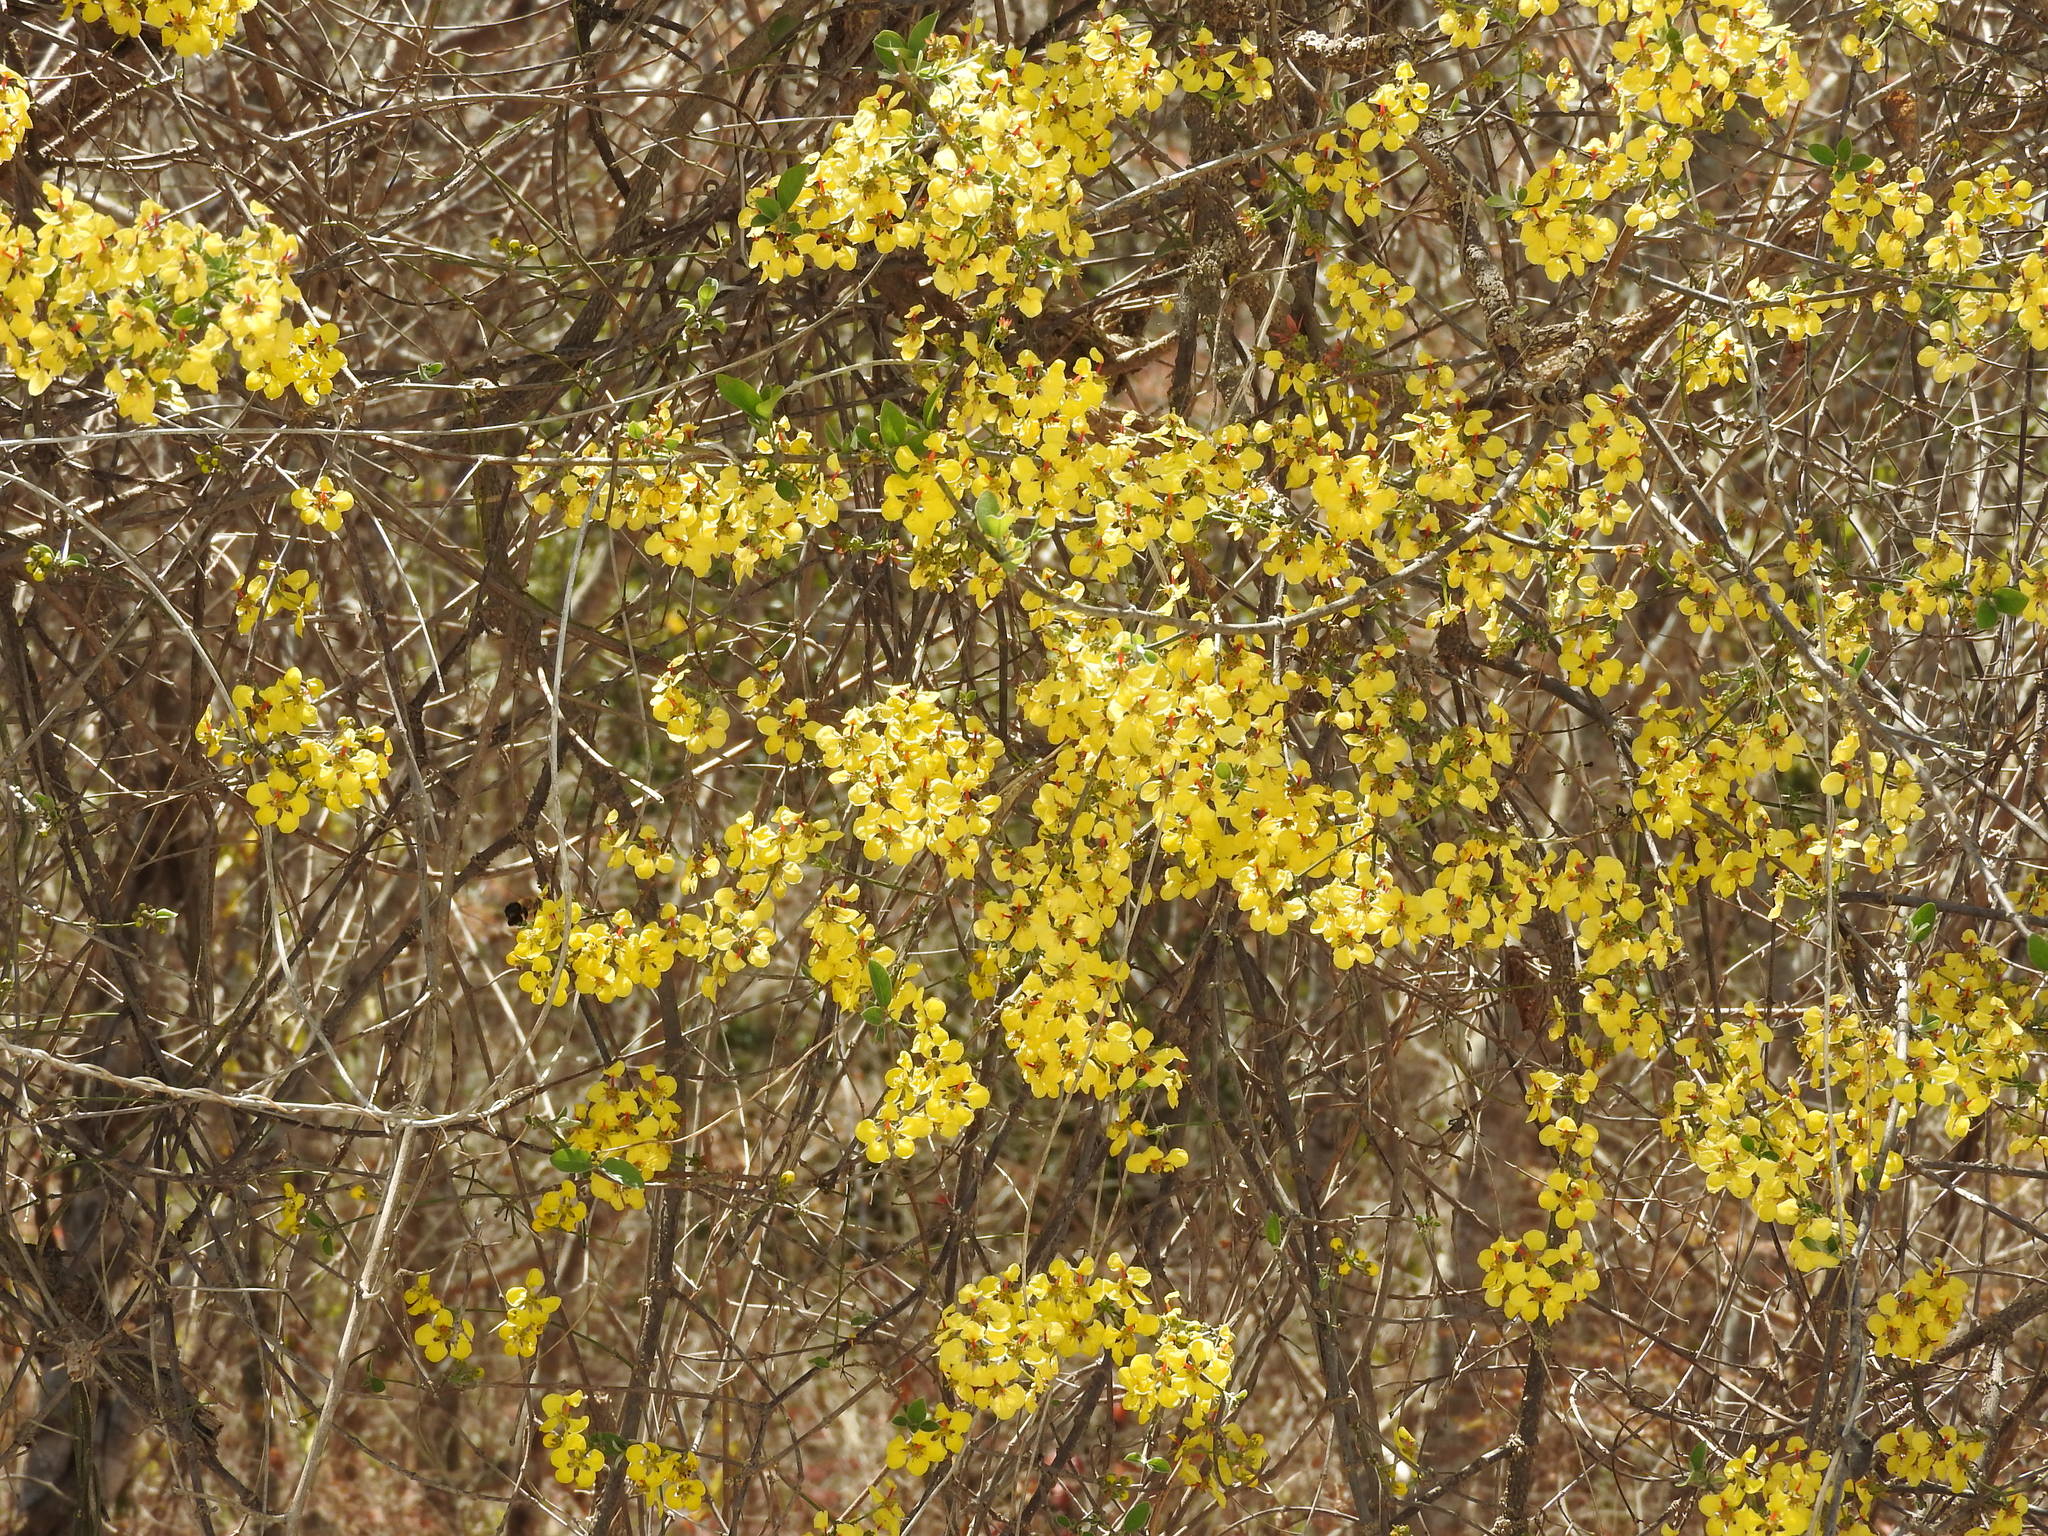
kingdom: Plantae
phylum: Tracheophyta
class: Magnoliopsida
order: Malpighiales
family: Malpighiaceae
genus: Tetrapterys
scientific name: Tetrapterys mexicana
